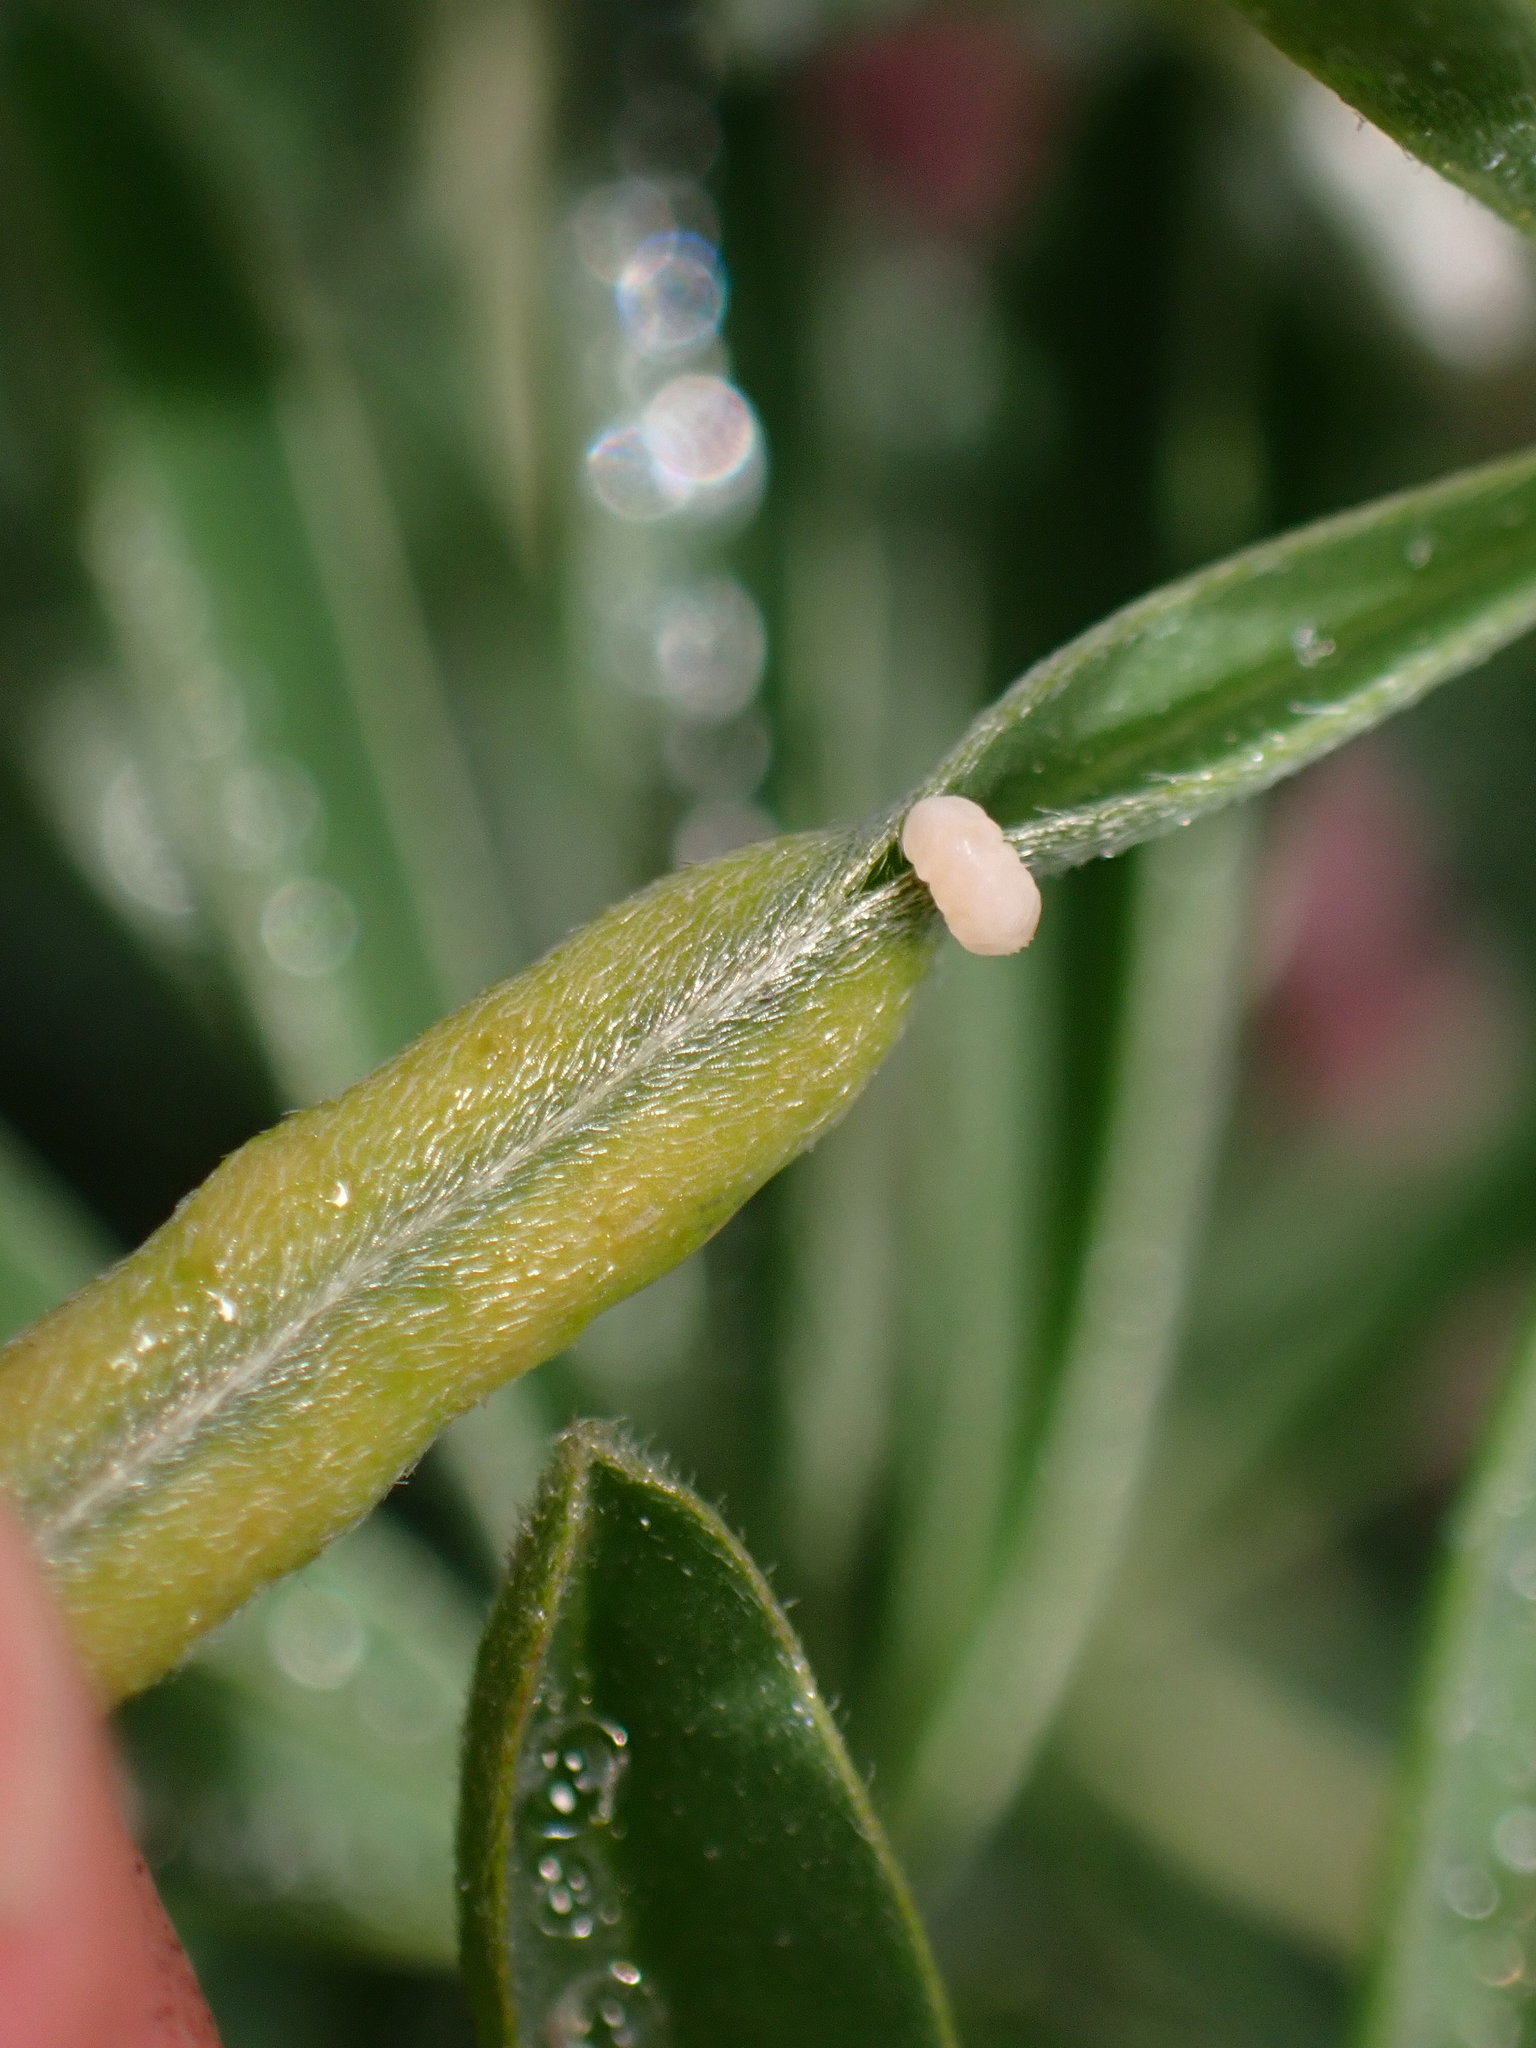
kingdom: Animalia
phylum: Arthropoda
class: Insecta
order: Diptera
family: Cecidomyiidae
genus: Dasineura
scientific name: Dasineura lupinorum
